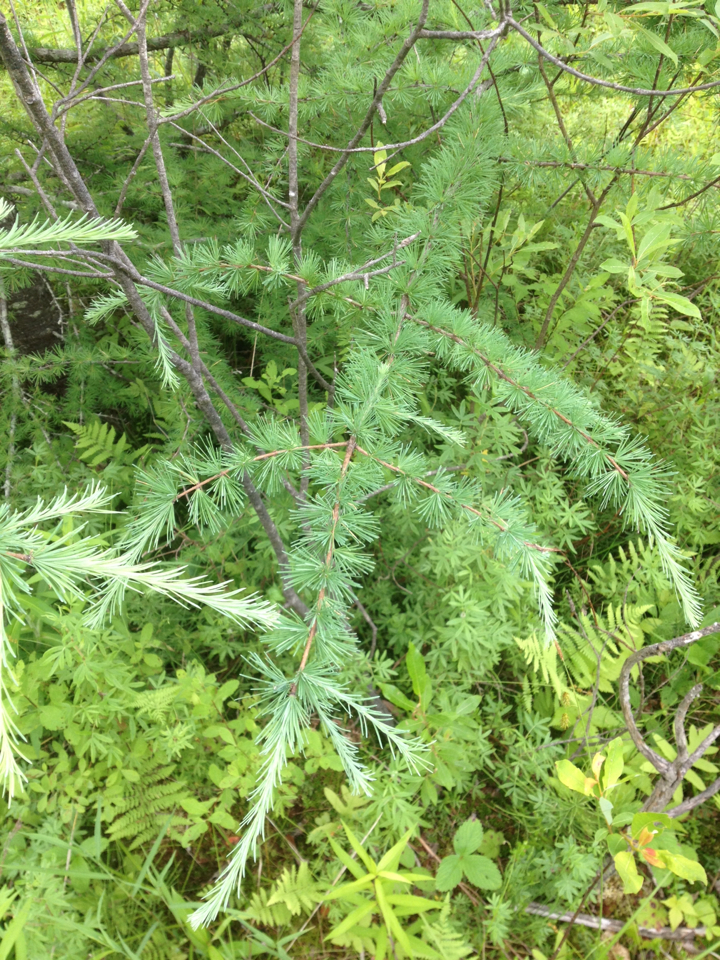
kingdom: Plantae
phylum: Tracheophyta
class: Pinopsida
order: Pinales
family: Pinaceae
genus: Larix
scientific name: Larix laricina
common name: American larch
